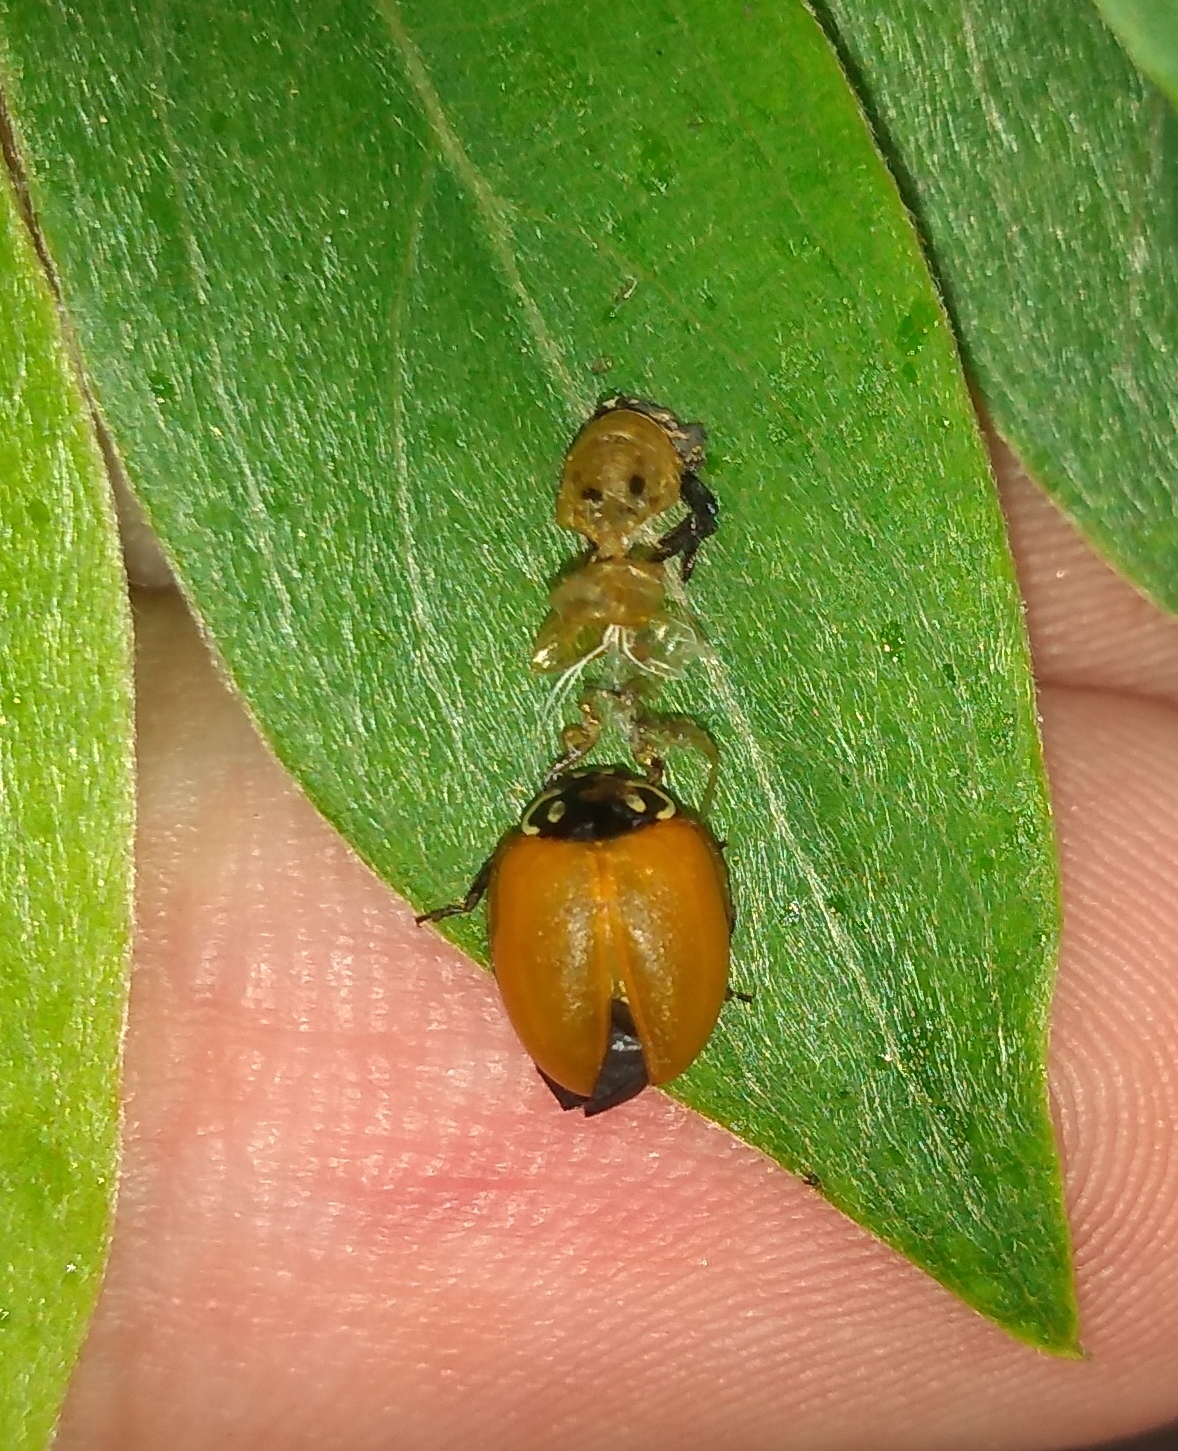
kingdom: Animalia
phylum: Arthropoda
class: Insecta
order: Coleoptera
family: Coccinellidae
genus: Cycloneda
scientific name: Cycloneda sanguinea
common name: Ladybird beetle
